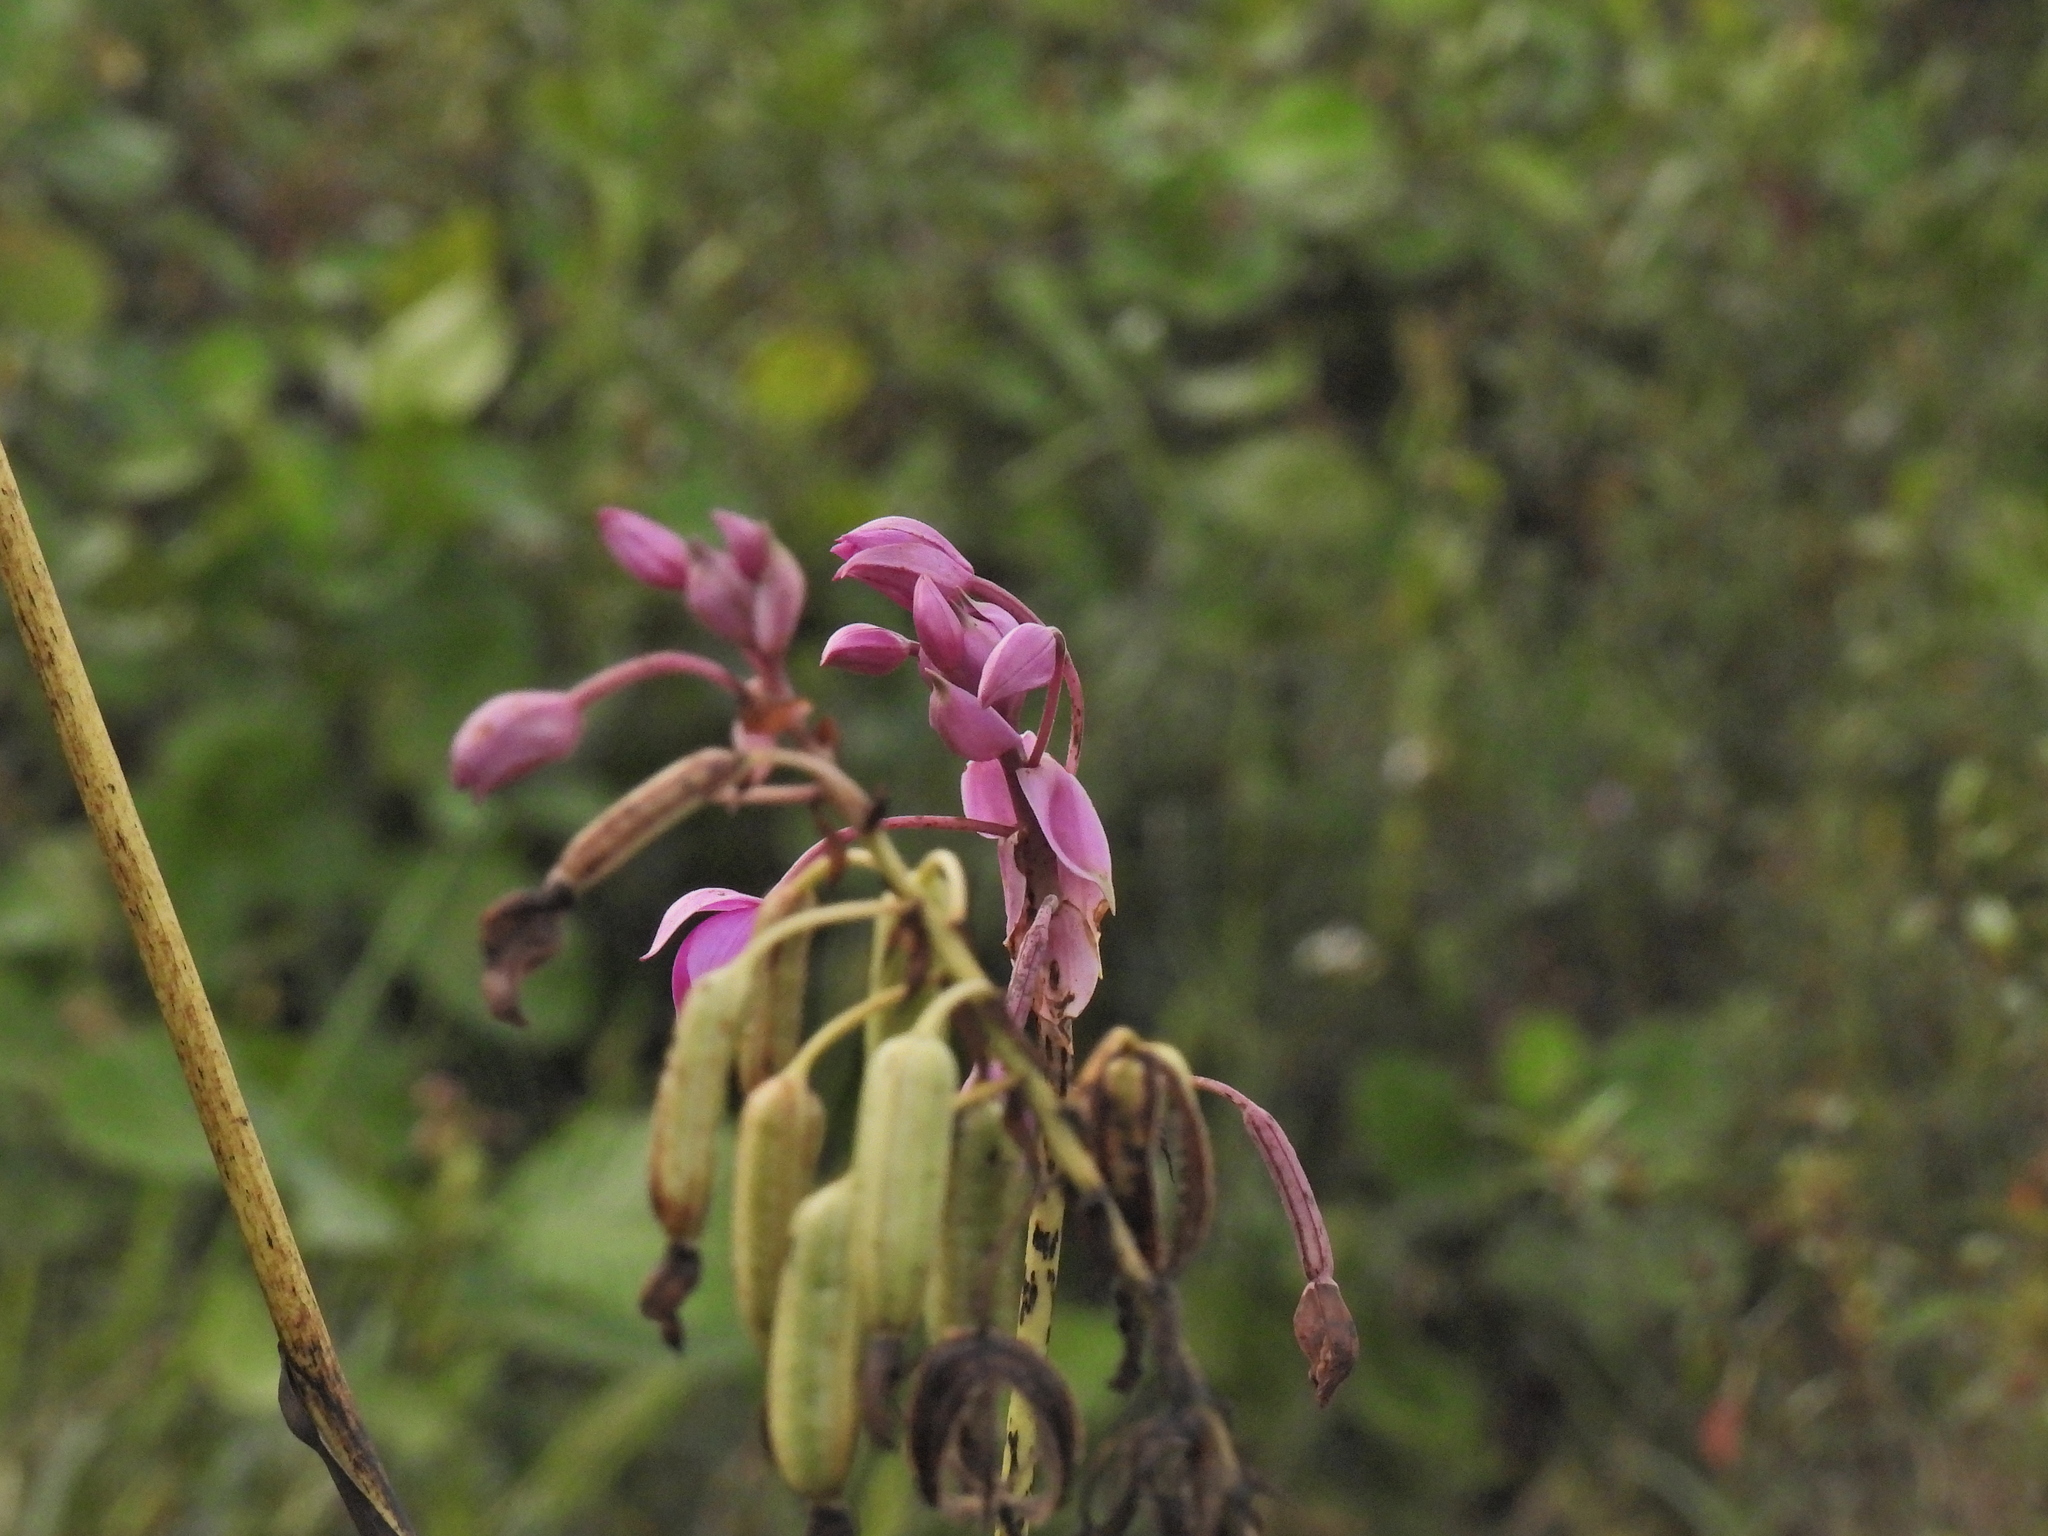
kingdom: Plantae
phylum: Tracheophyta
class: Liliopsida
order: Asparagales
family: Orchidaceae
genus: Spathoglottis
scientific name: Spathoglottis plicata
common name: Philippine ground orchid
